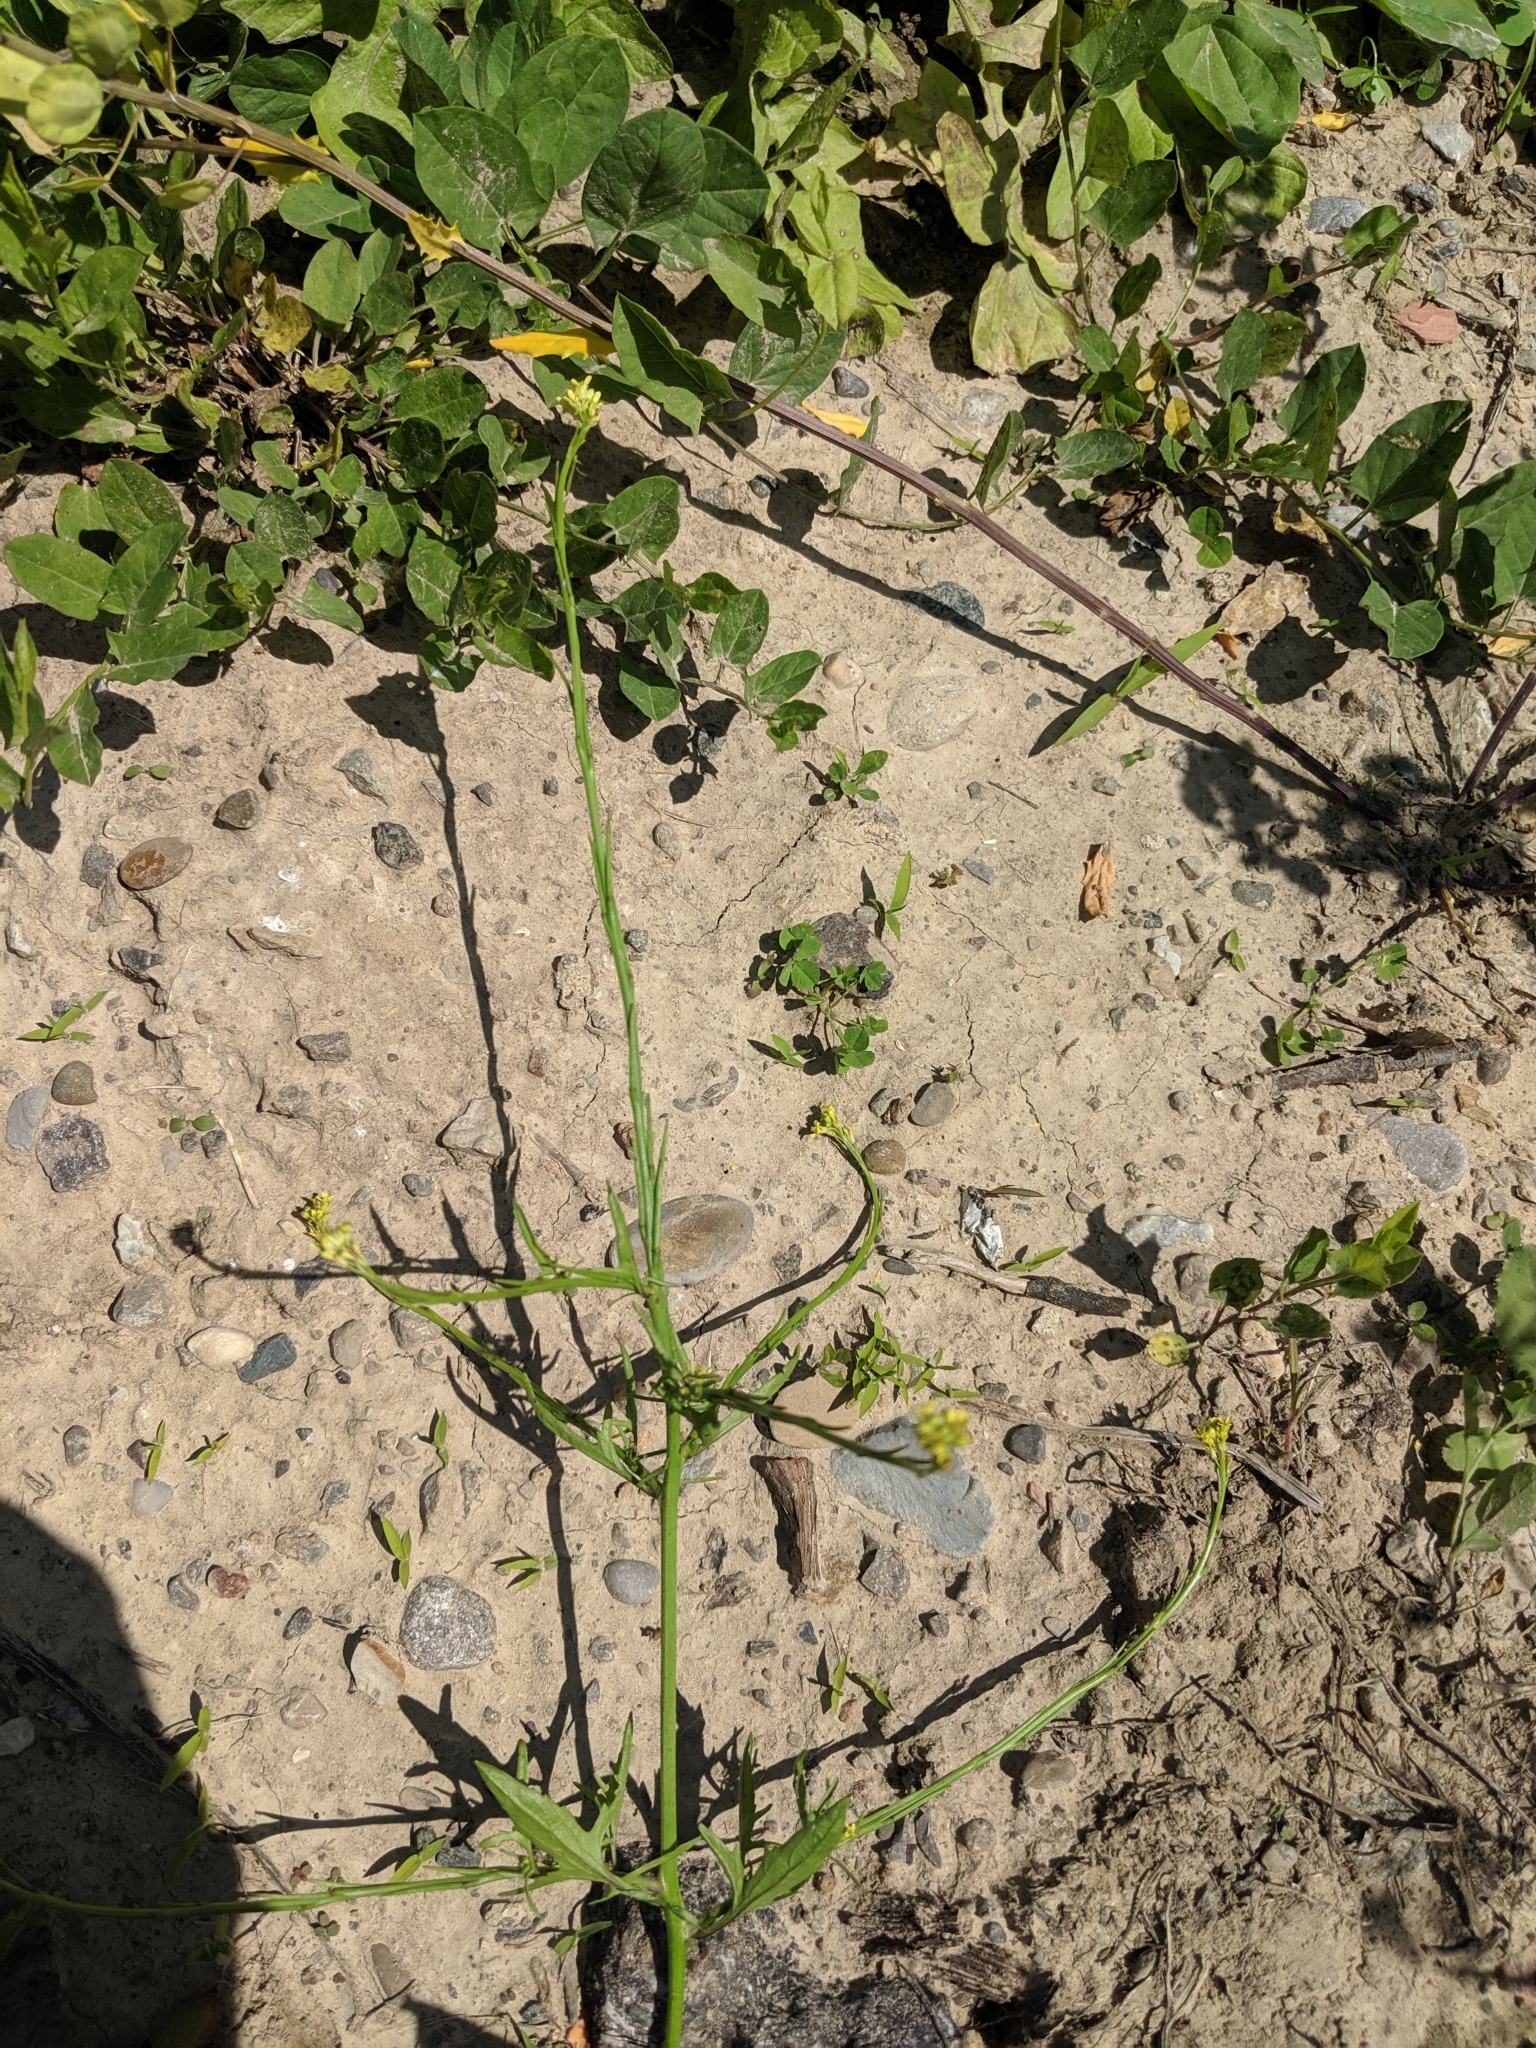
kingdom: Plantae
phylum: Tracheophyta
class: Magnoliopsida
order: Brassicales
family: Brassicaceae
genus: Sisymbrium
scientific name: Sisymbrium officinale
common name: Hedge mustard
